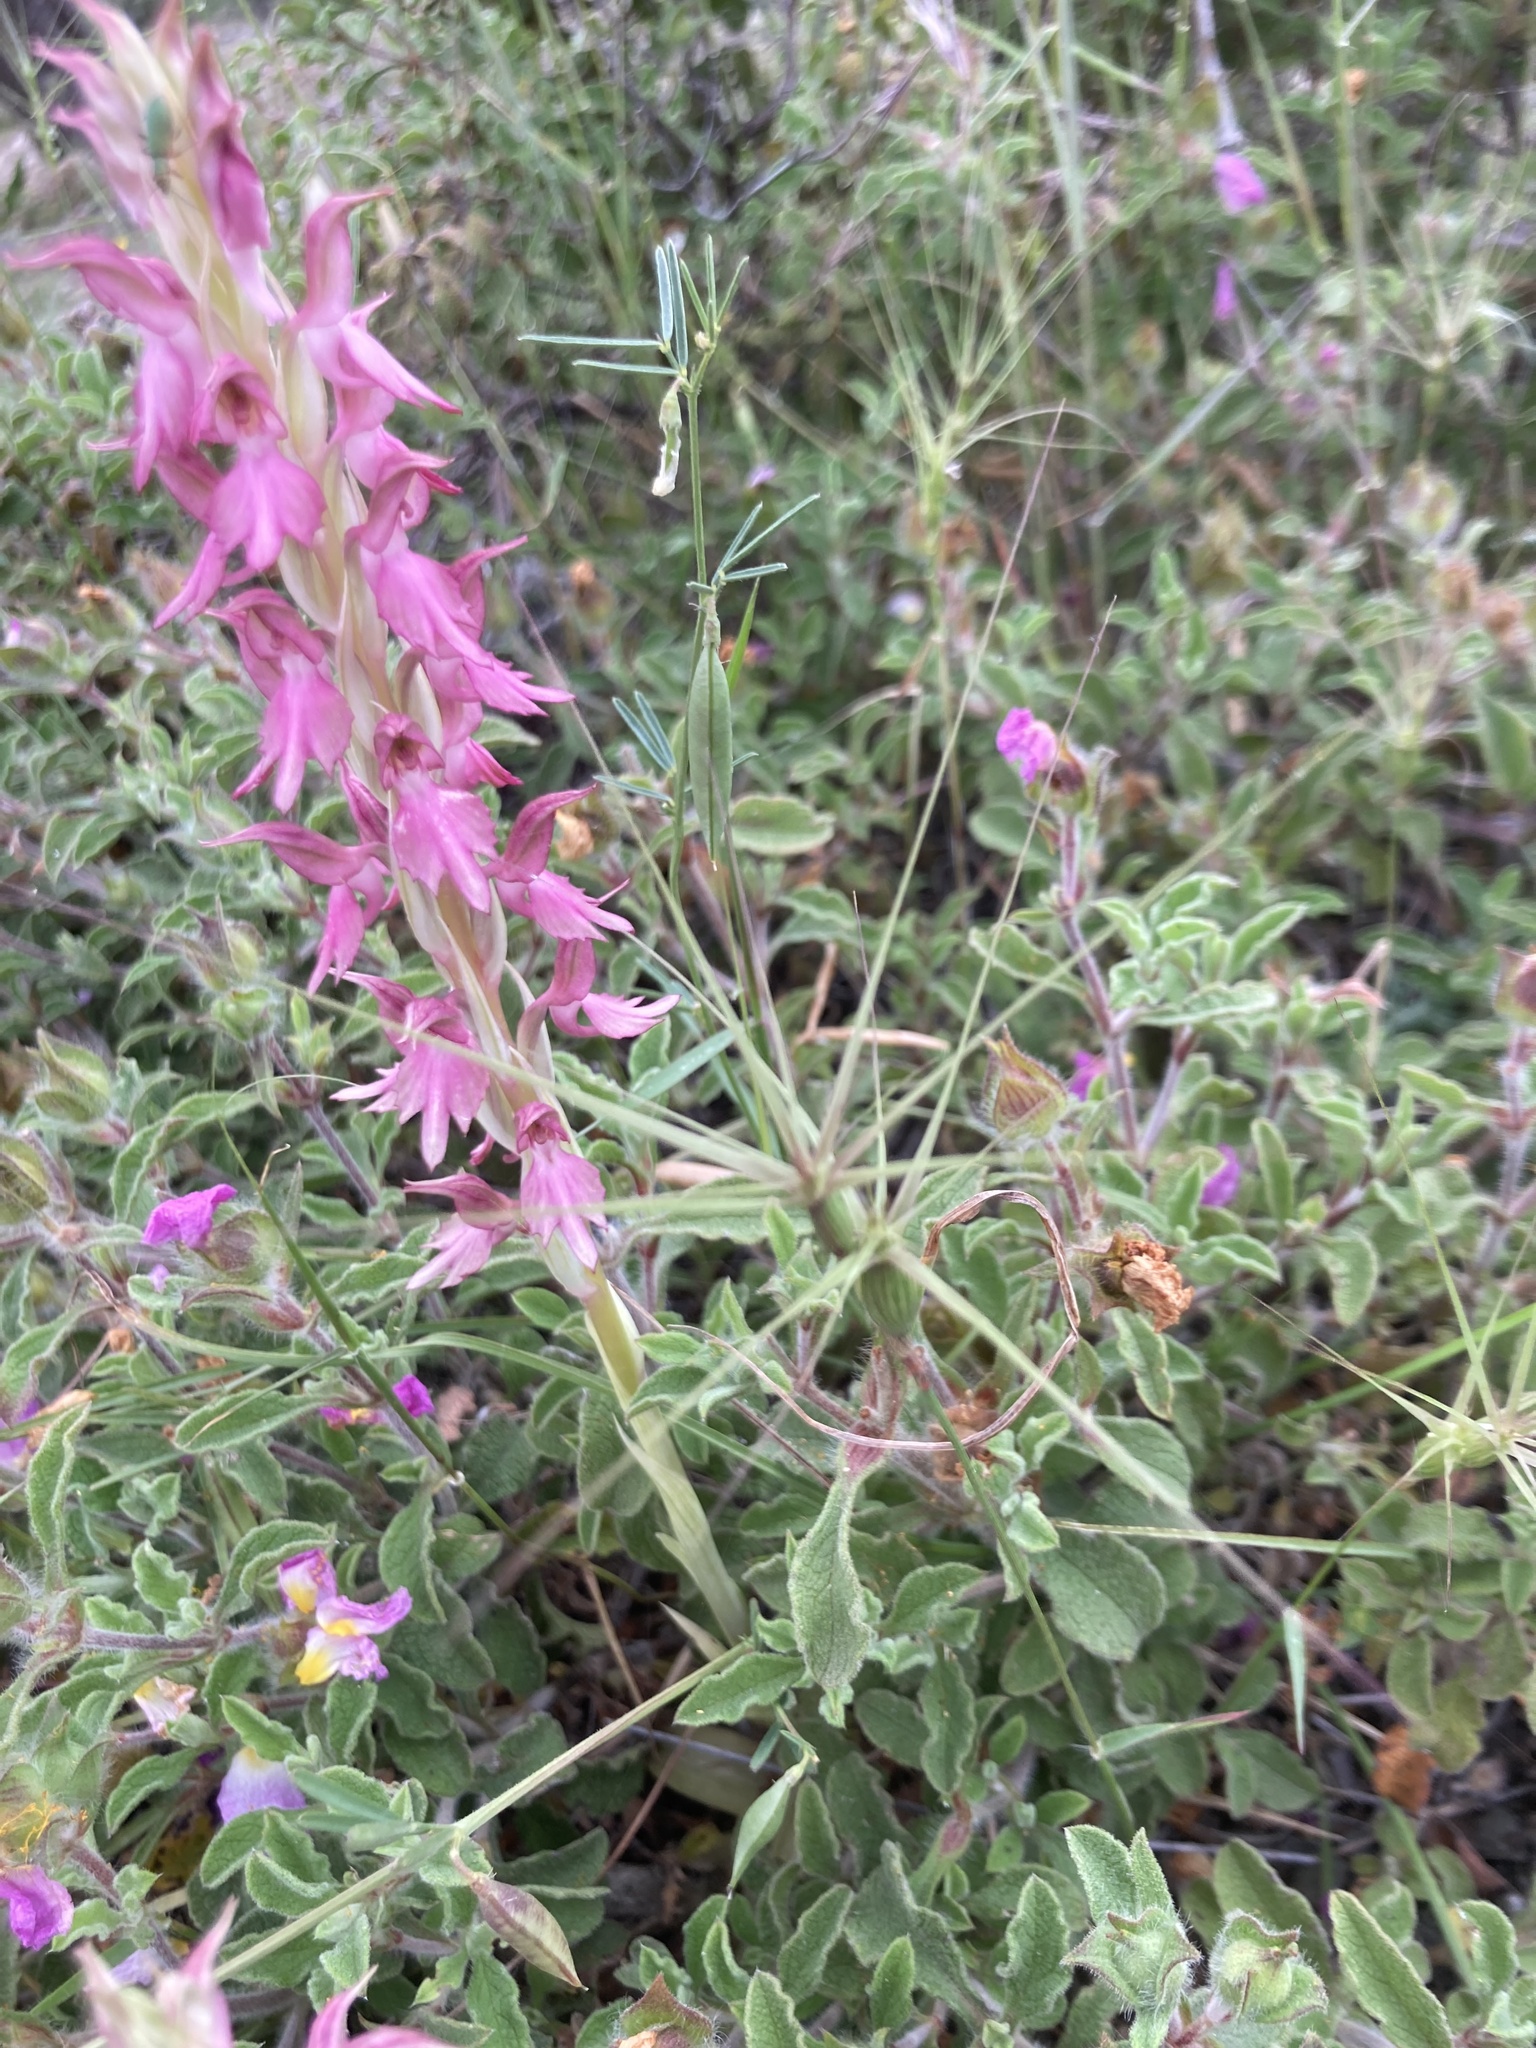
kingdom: Plantae
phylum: Tracheophyta
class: Liliopsida
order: Asparagales
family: Orchidaceae
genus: Anacamptis
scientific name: Anacamptis sancta
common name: Holy orchid
